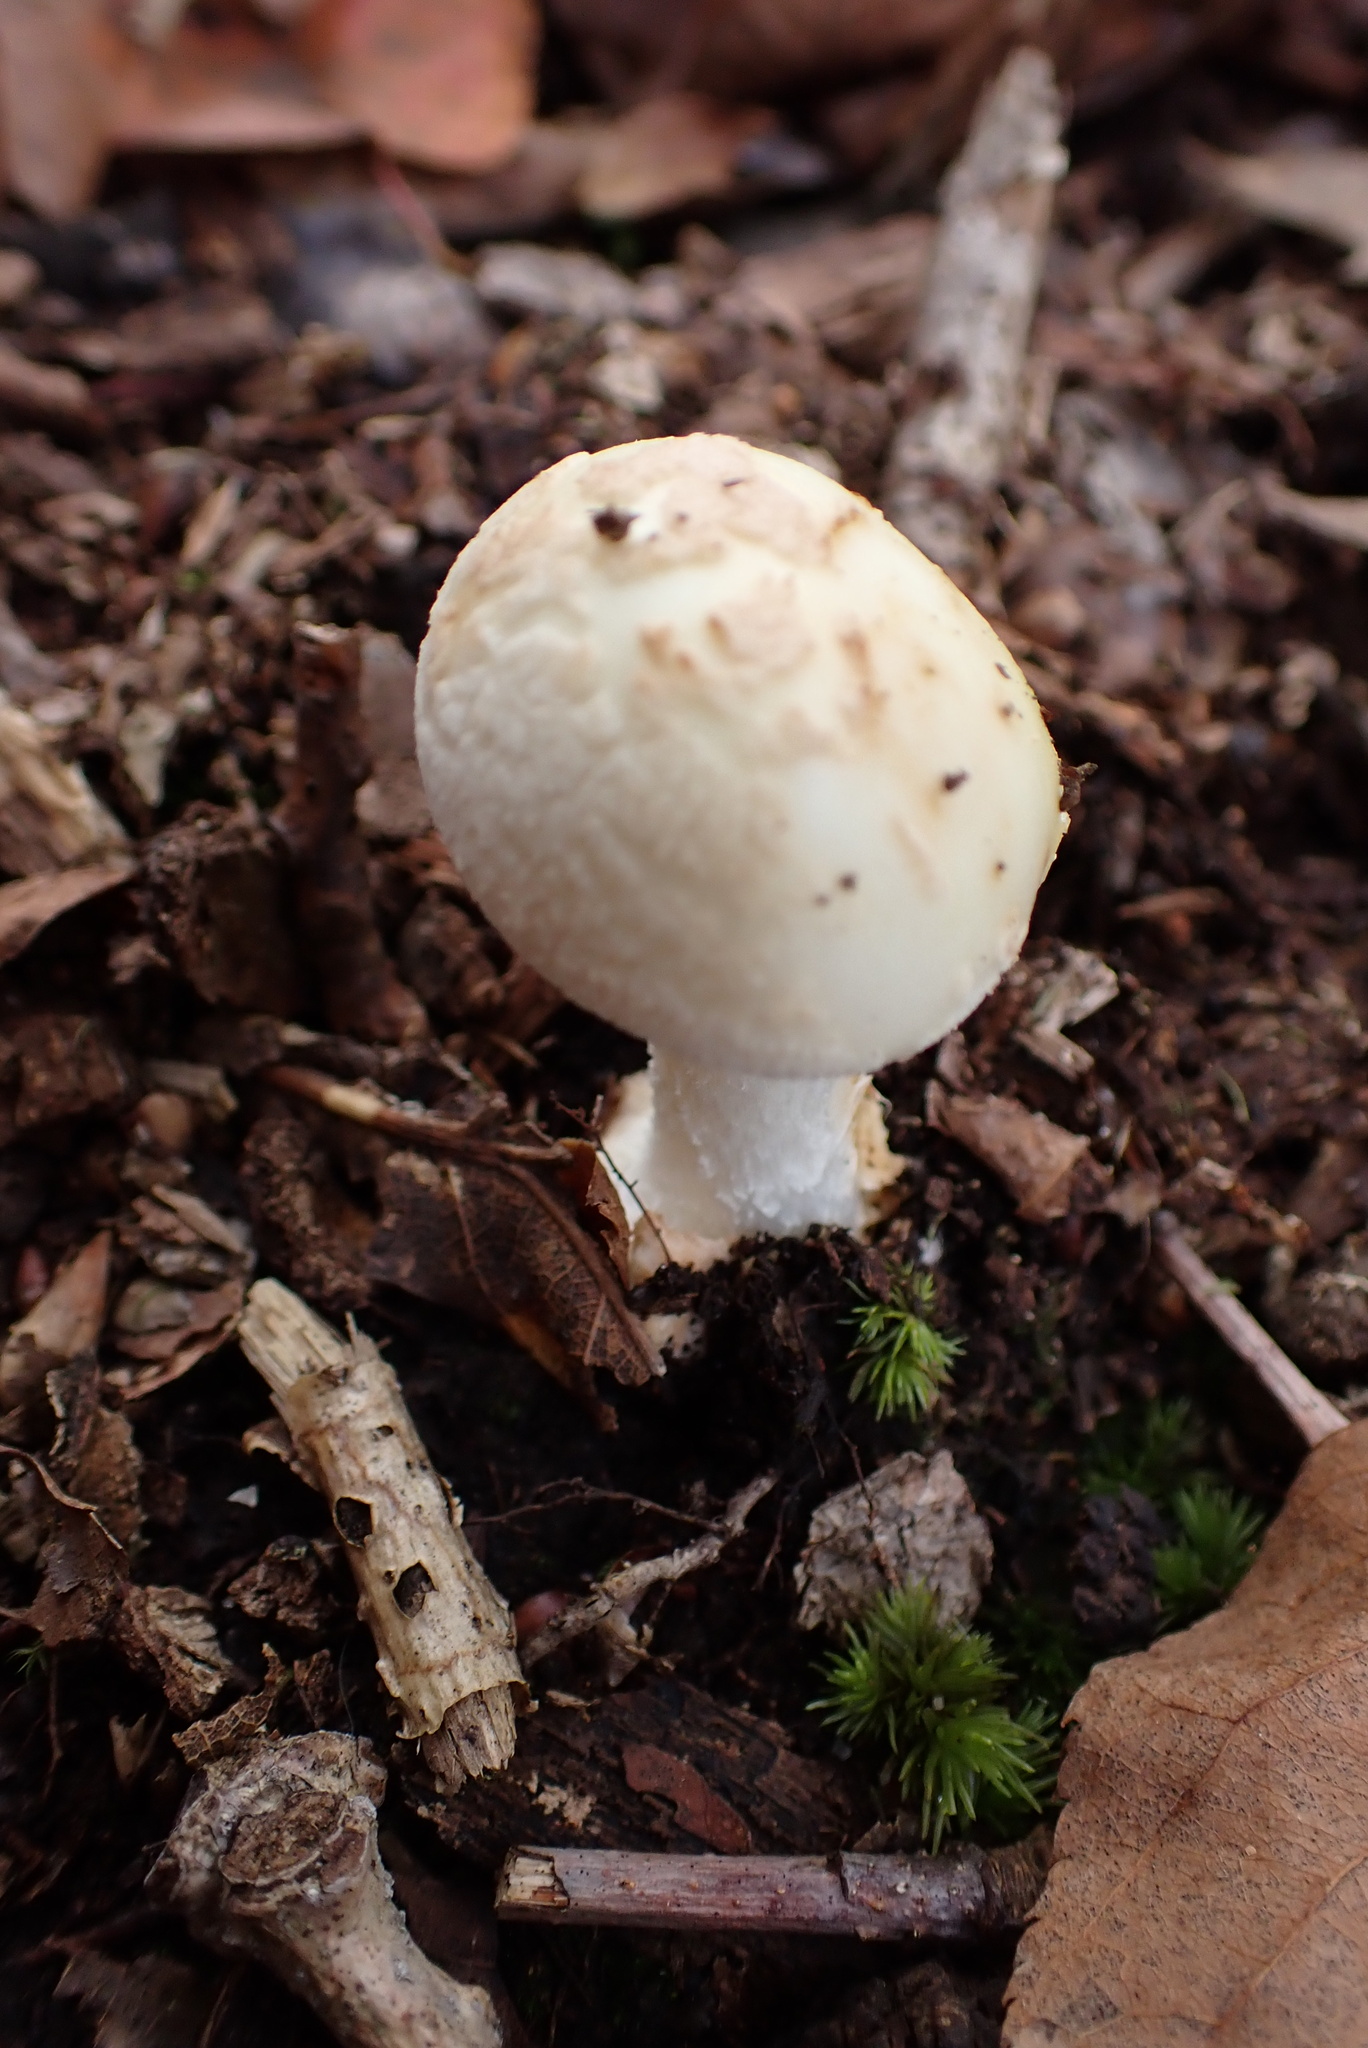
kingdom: Fungi
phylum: Basidiomycota
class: Agaricomycetes
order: Agaricales
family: Amanitaceae
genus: Amanita
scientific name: Amanita citrina
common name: False death-cap
